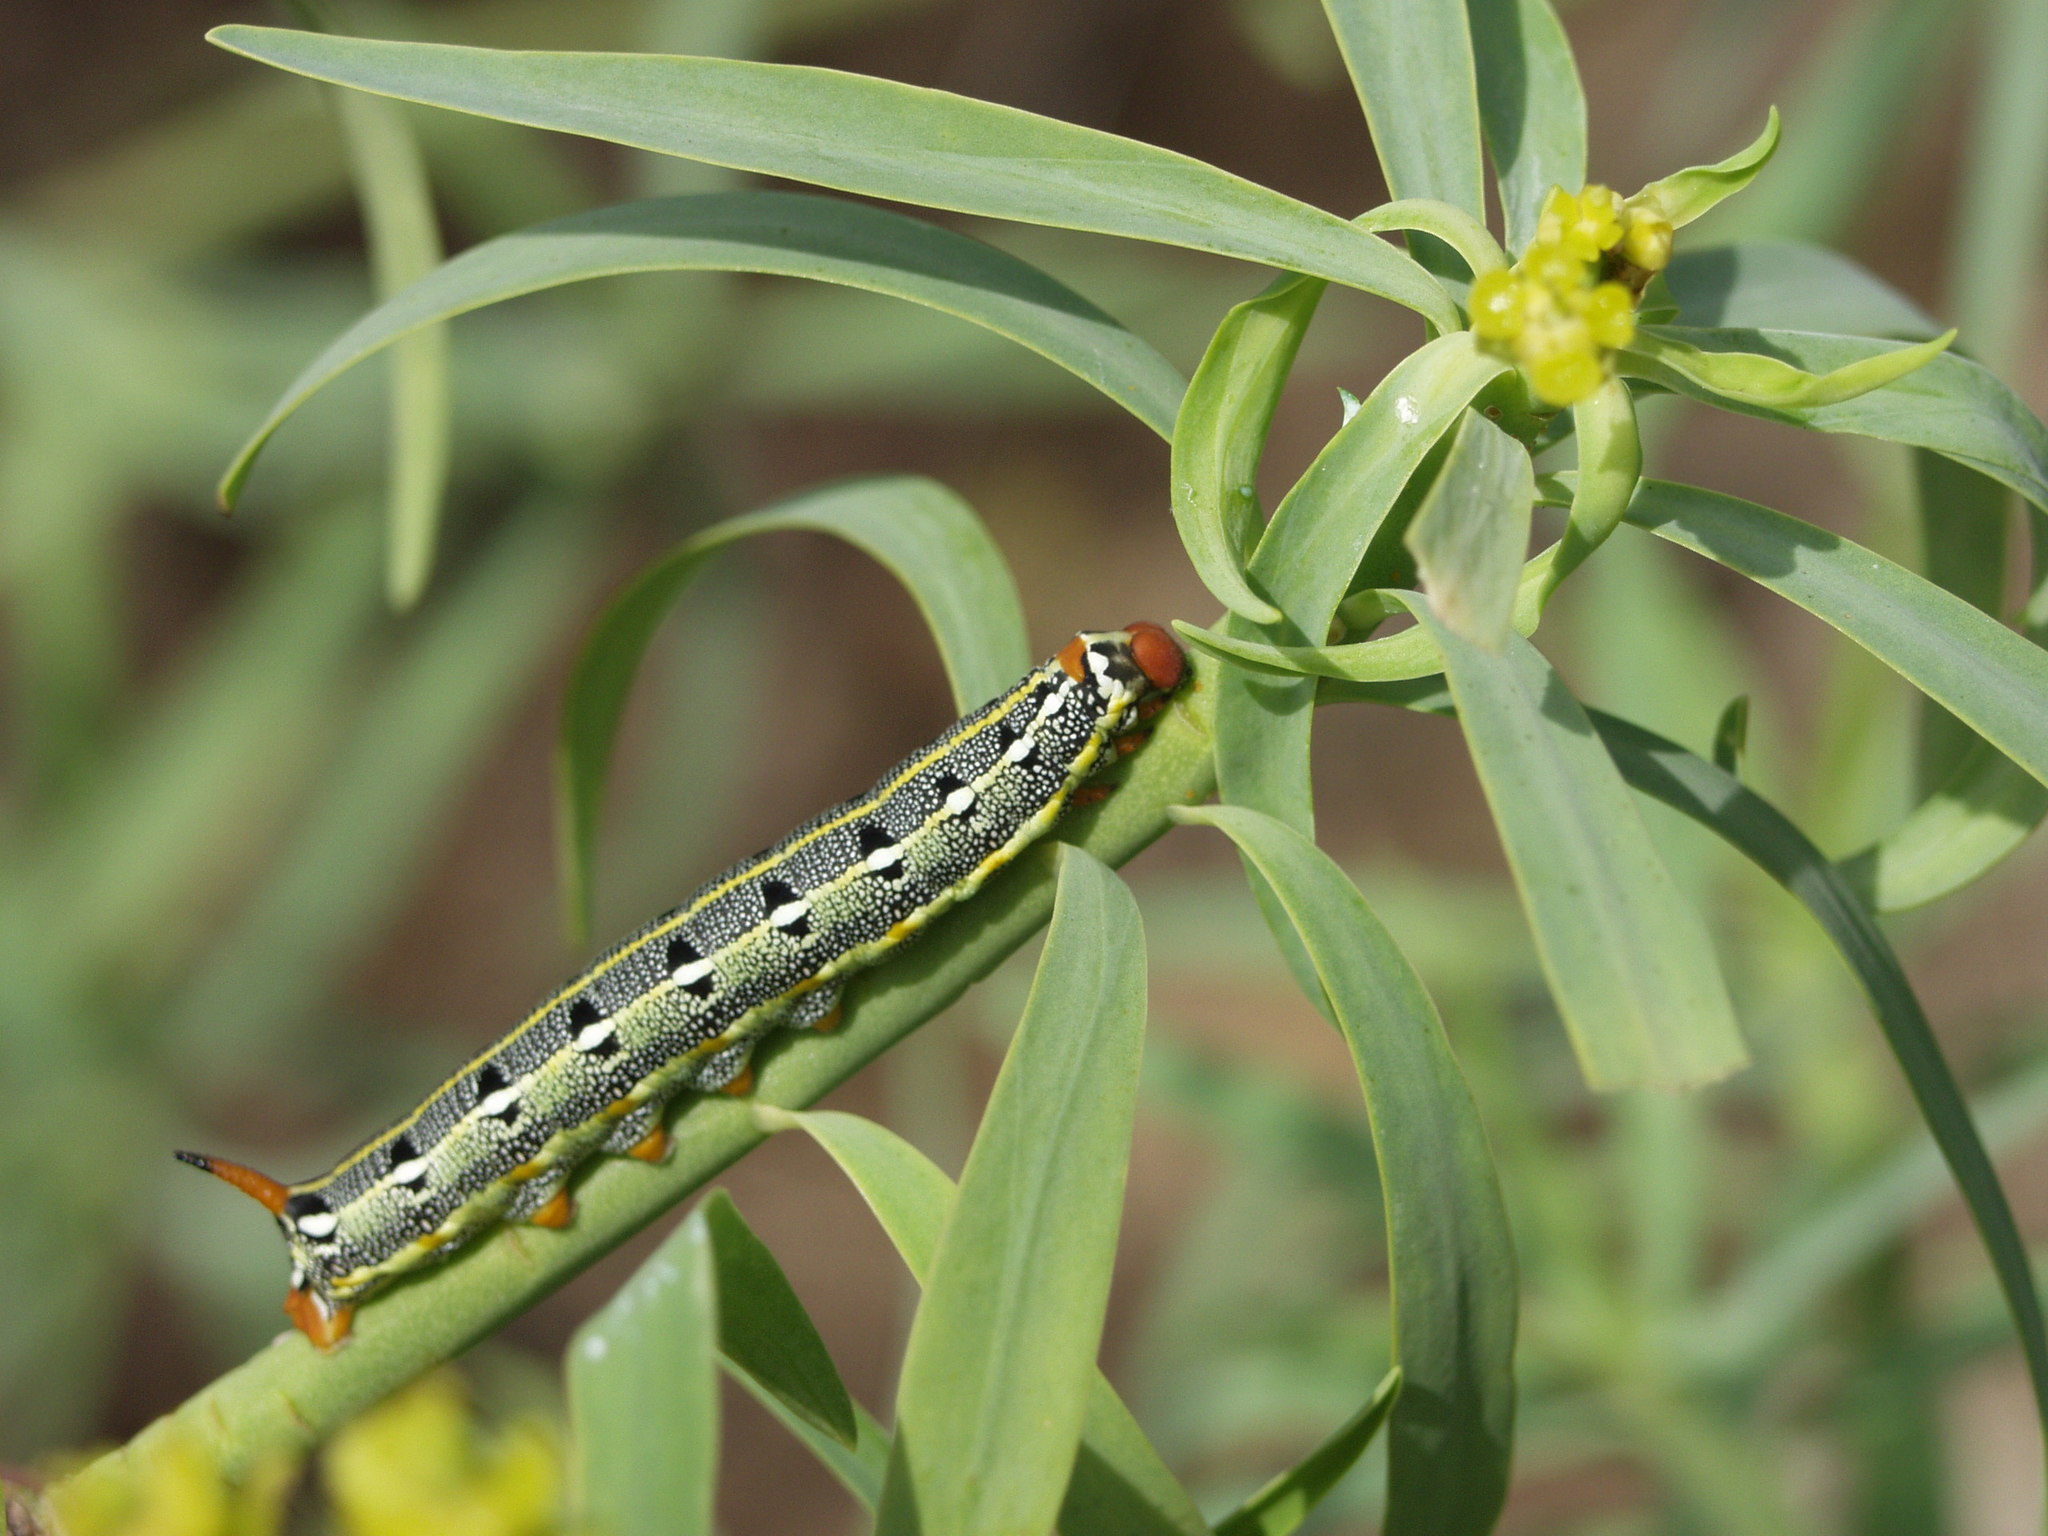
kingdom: Animalia
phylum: Arthropoda
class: Insecta
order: Lepidoptera
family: Sphingidae
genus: Hyles
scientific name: Hyles tithymali
